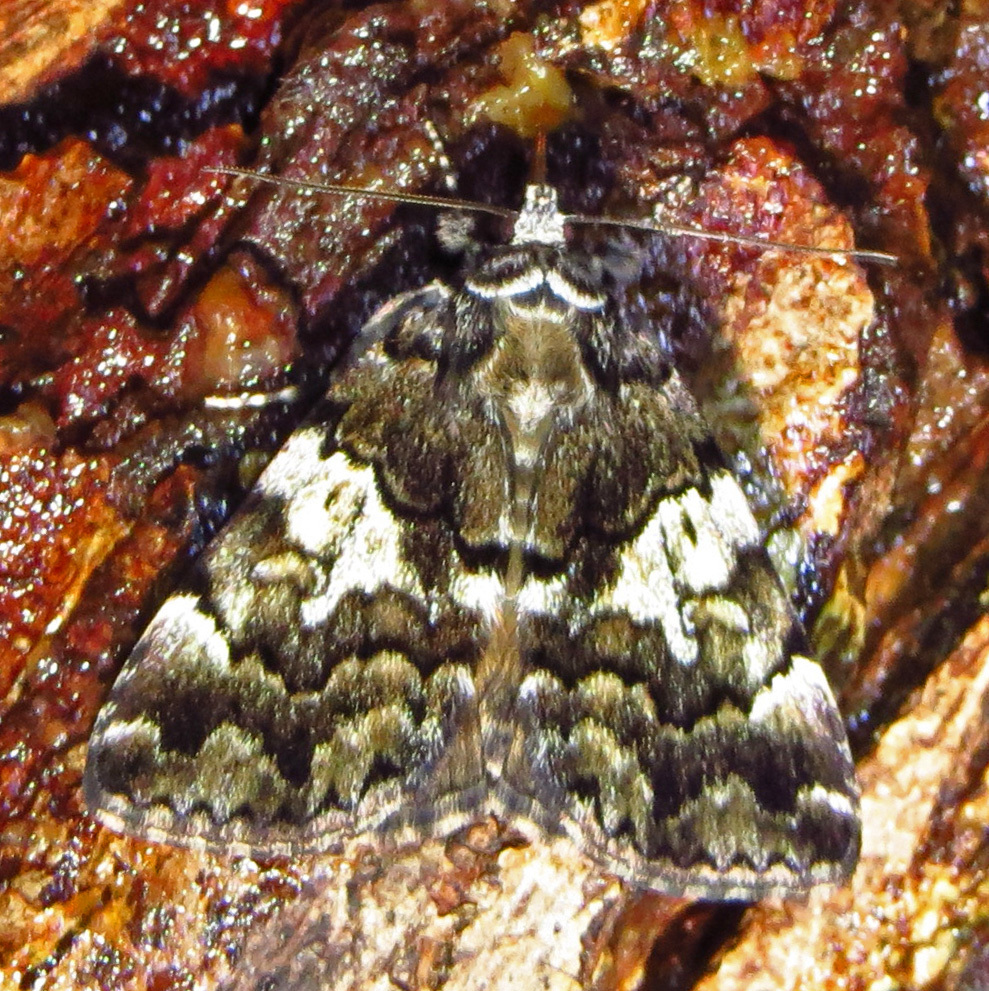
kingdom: Animalia
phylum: Arthropoda
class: Insecta
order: Lepidoptera
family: Erebidae
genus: Allotria
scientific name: Allotria elonympha
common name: False underwing
